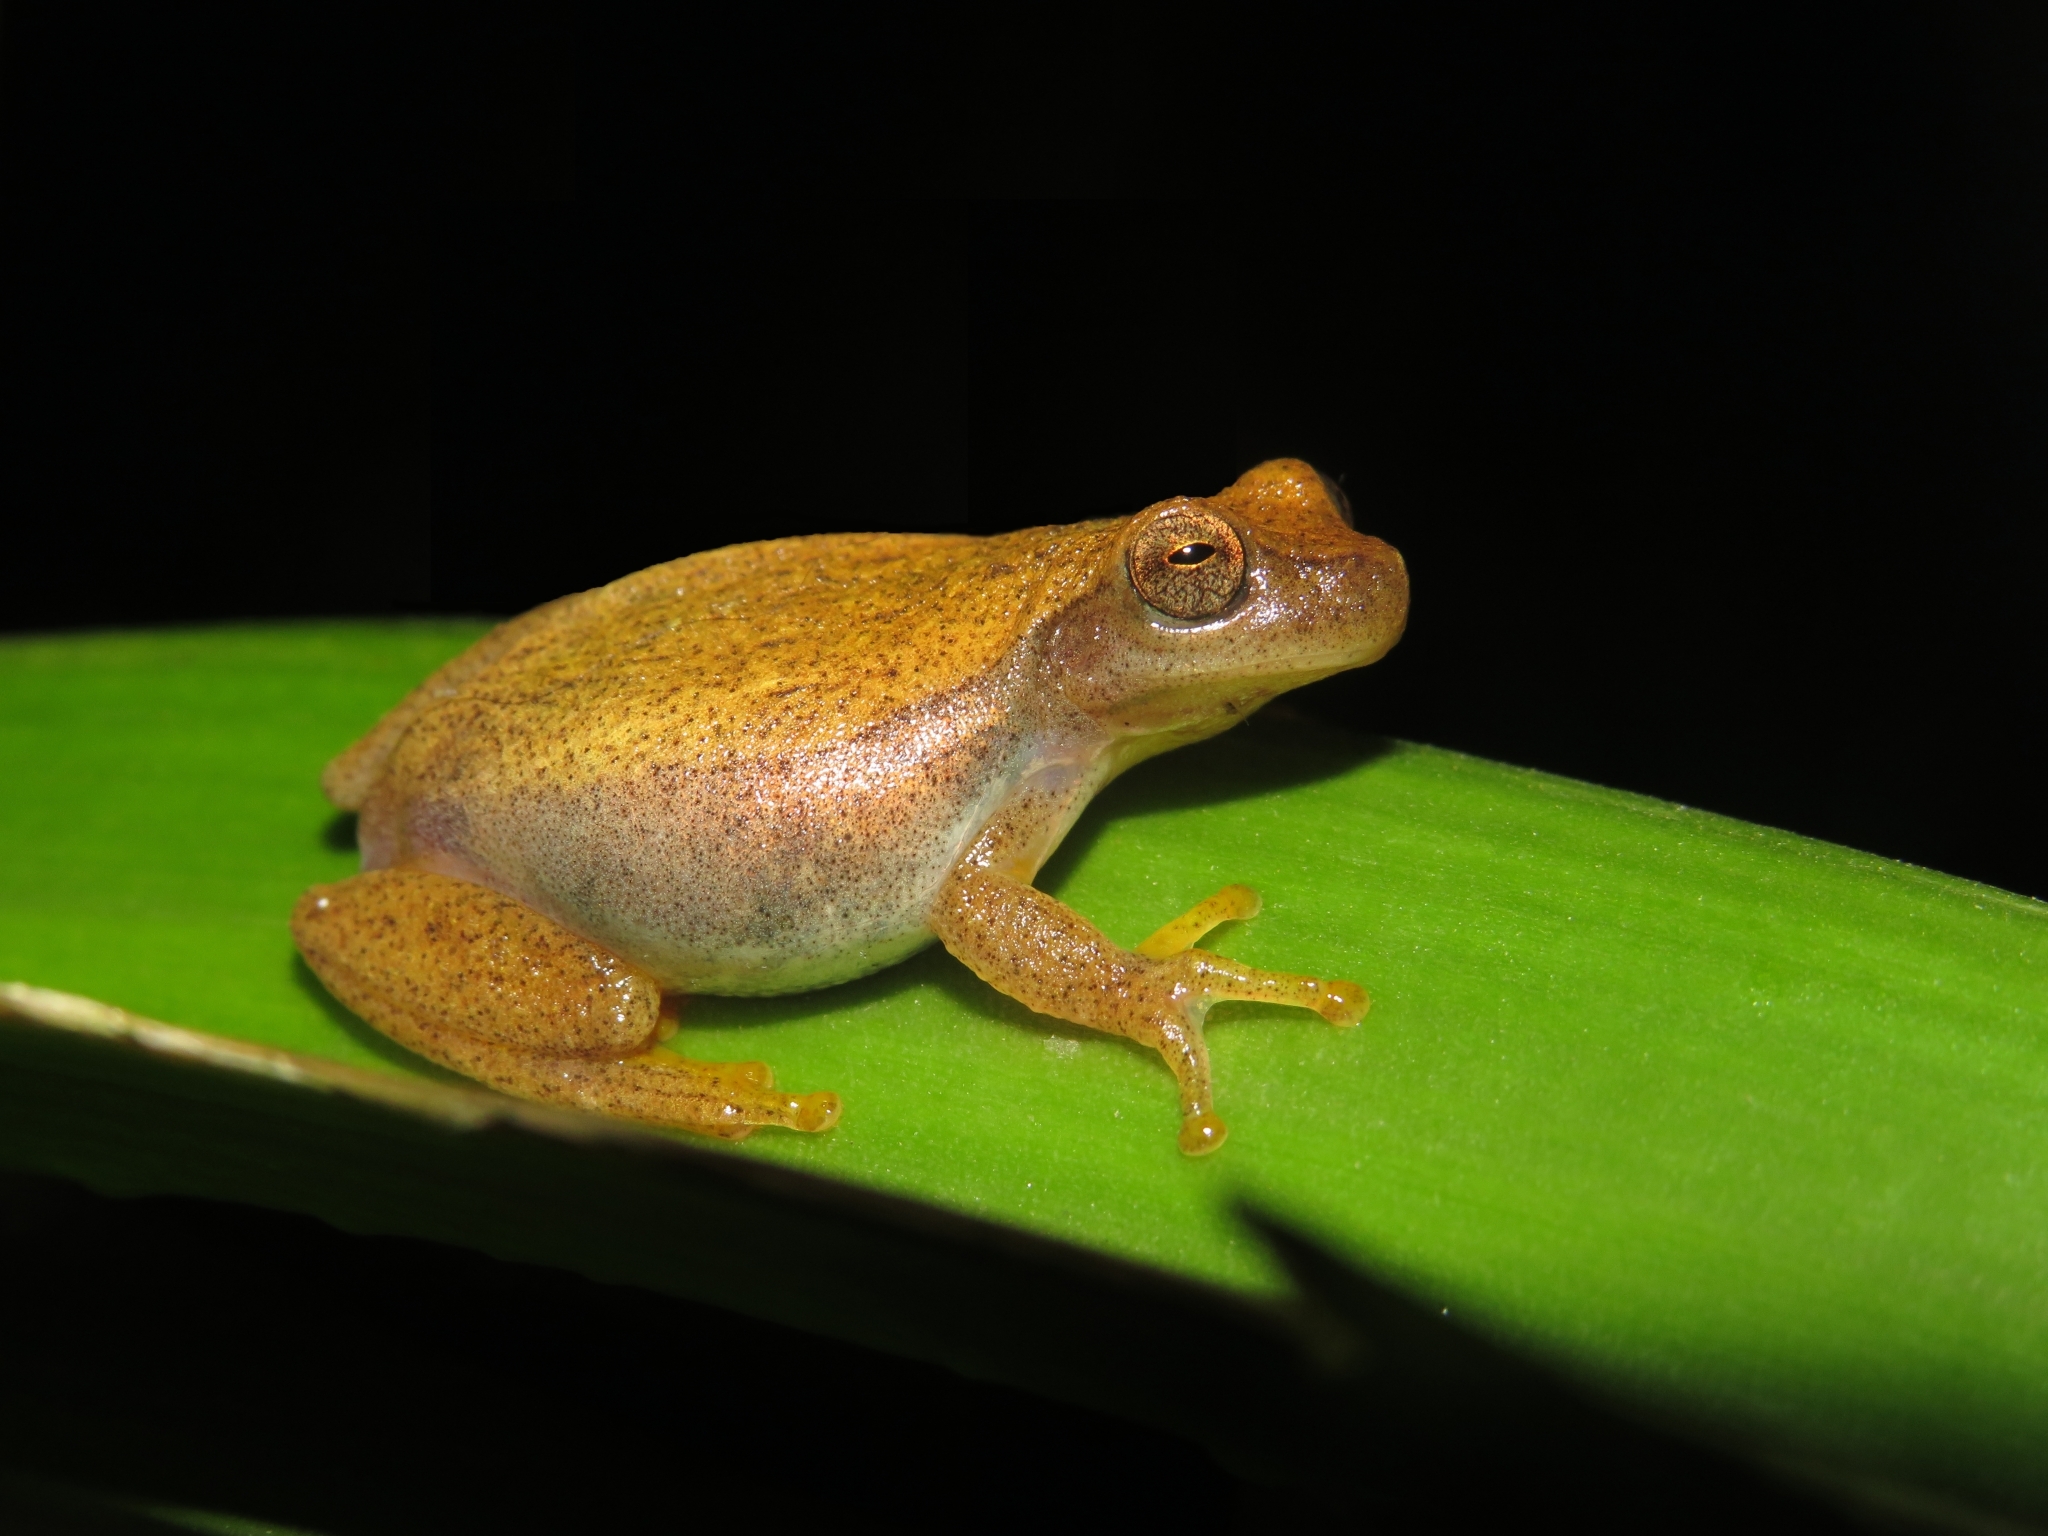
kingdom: Animalia
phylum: Chordata
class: Amphibia
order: Anura
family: Hylidae
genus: Dendropsophus
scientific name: Dendropsophus
